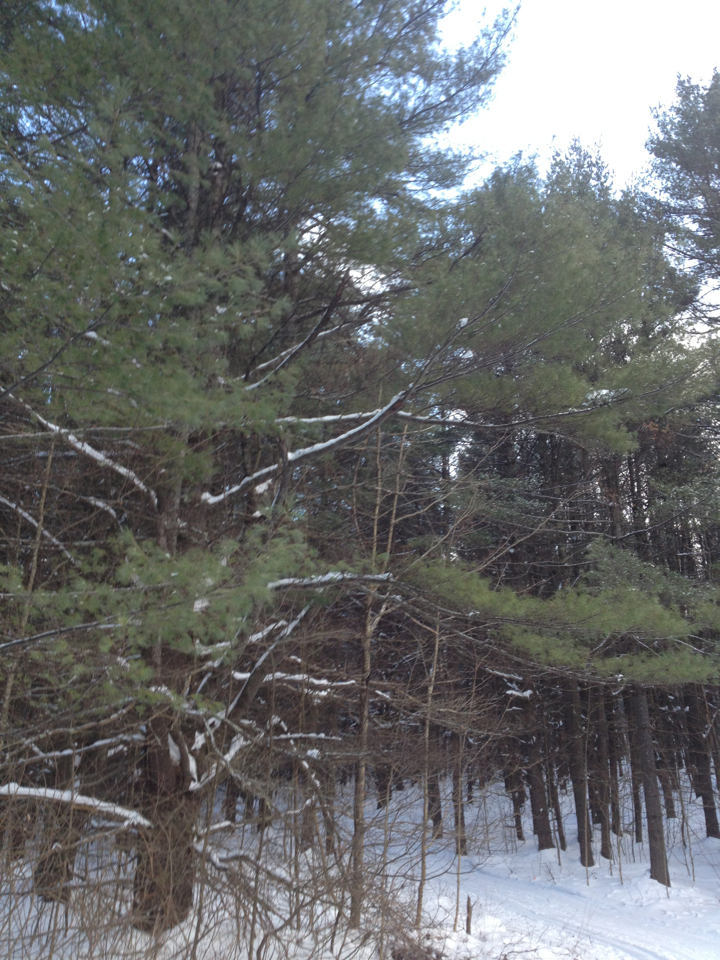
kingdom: Plantae
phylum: Tracheophyta
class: Pinopsida
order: Pinales
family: Pinaceae
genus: Pinus
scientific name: Pinus strobus
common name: Weymouth pine
